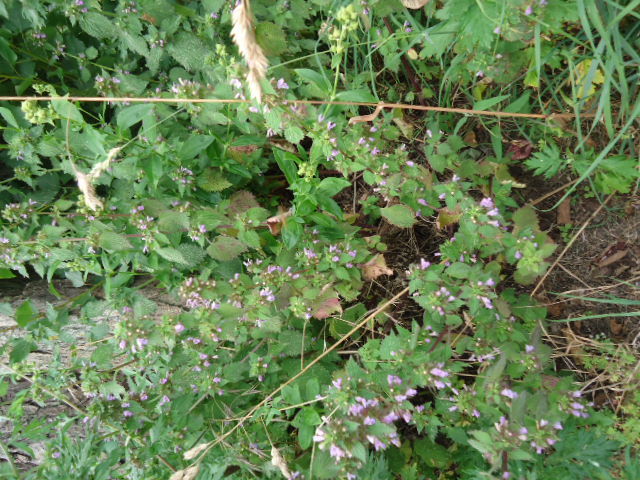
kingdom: Plantae
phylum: Tracheophyta
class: Magnoliopsida
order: Lamiales
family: Lamiaceae
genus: Ballota
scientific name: Ballota nigra
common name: Black horehound
